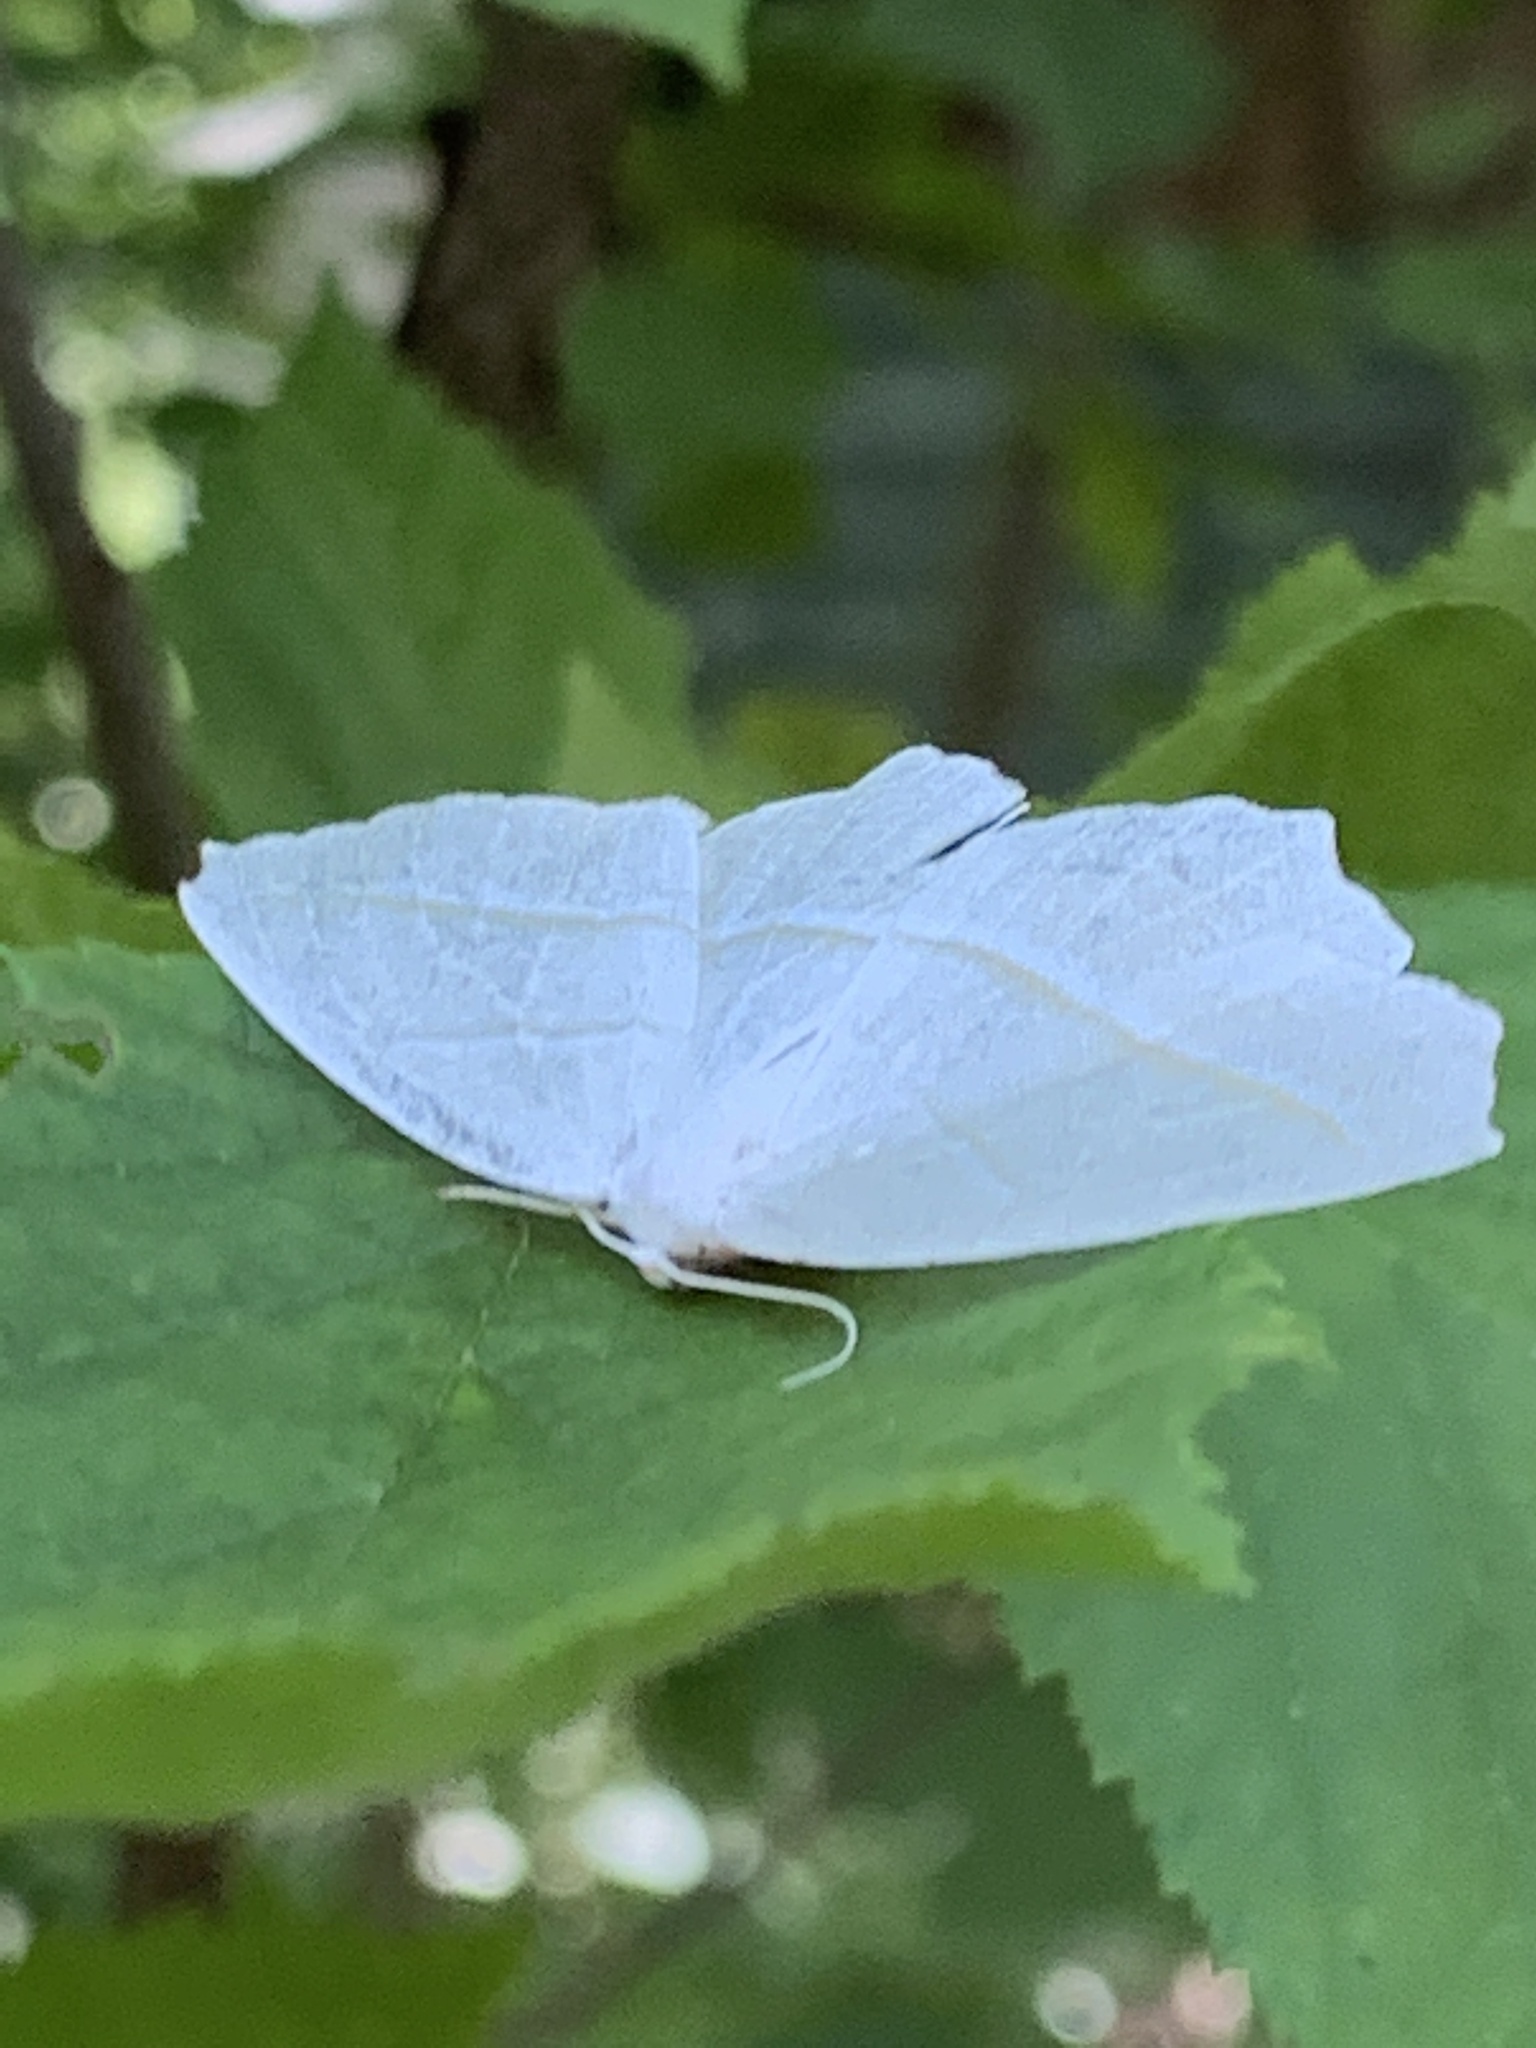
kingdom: Animalia
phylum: Arthropoda
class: Insecta
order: Lepidoptera
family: Geometridae
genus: Campaea
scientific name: Campaea perlata
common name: Fringed looper
